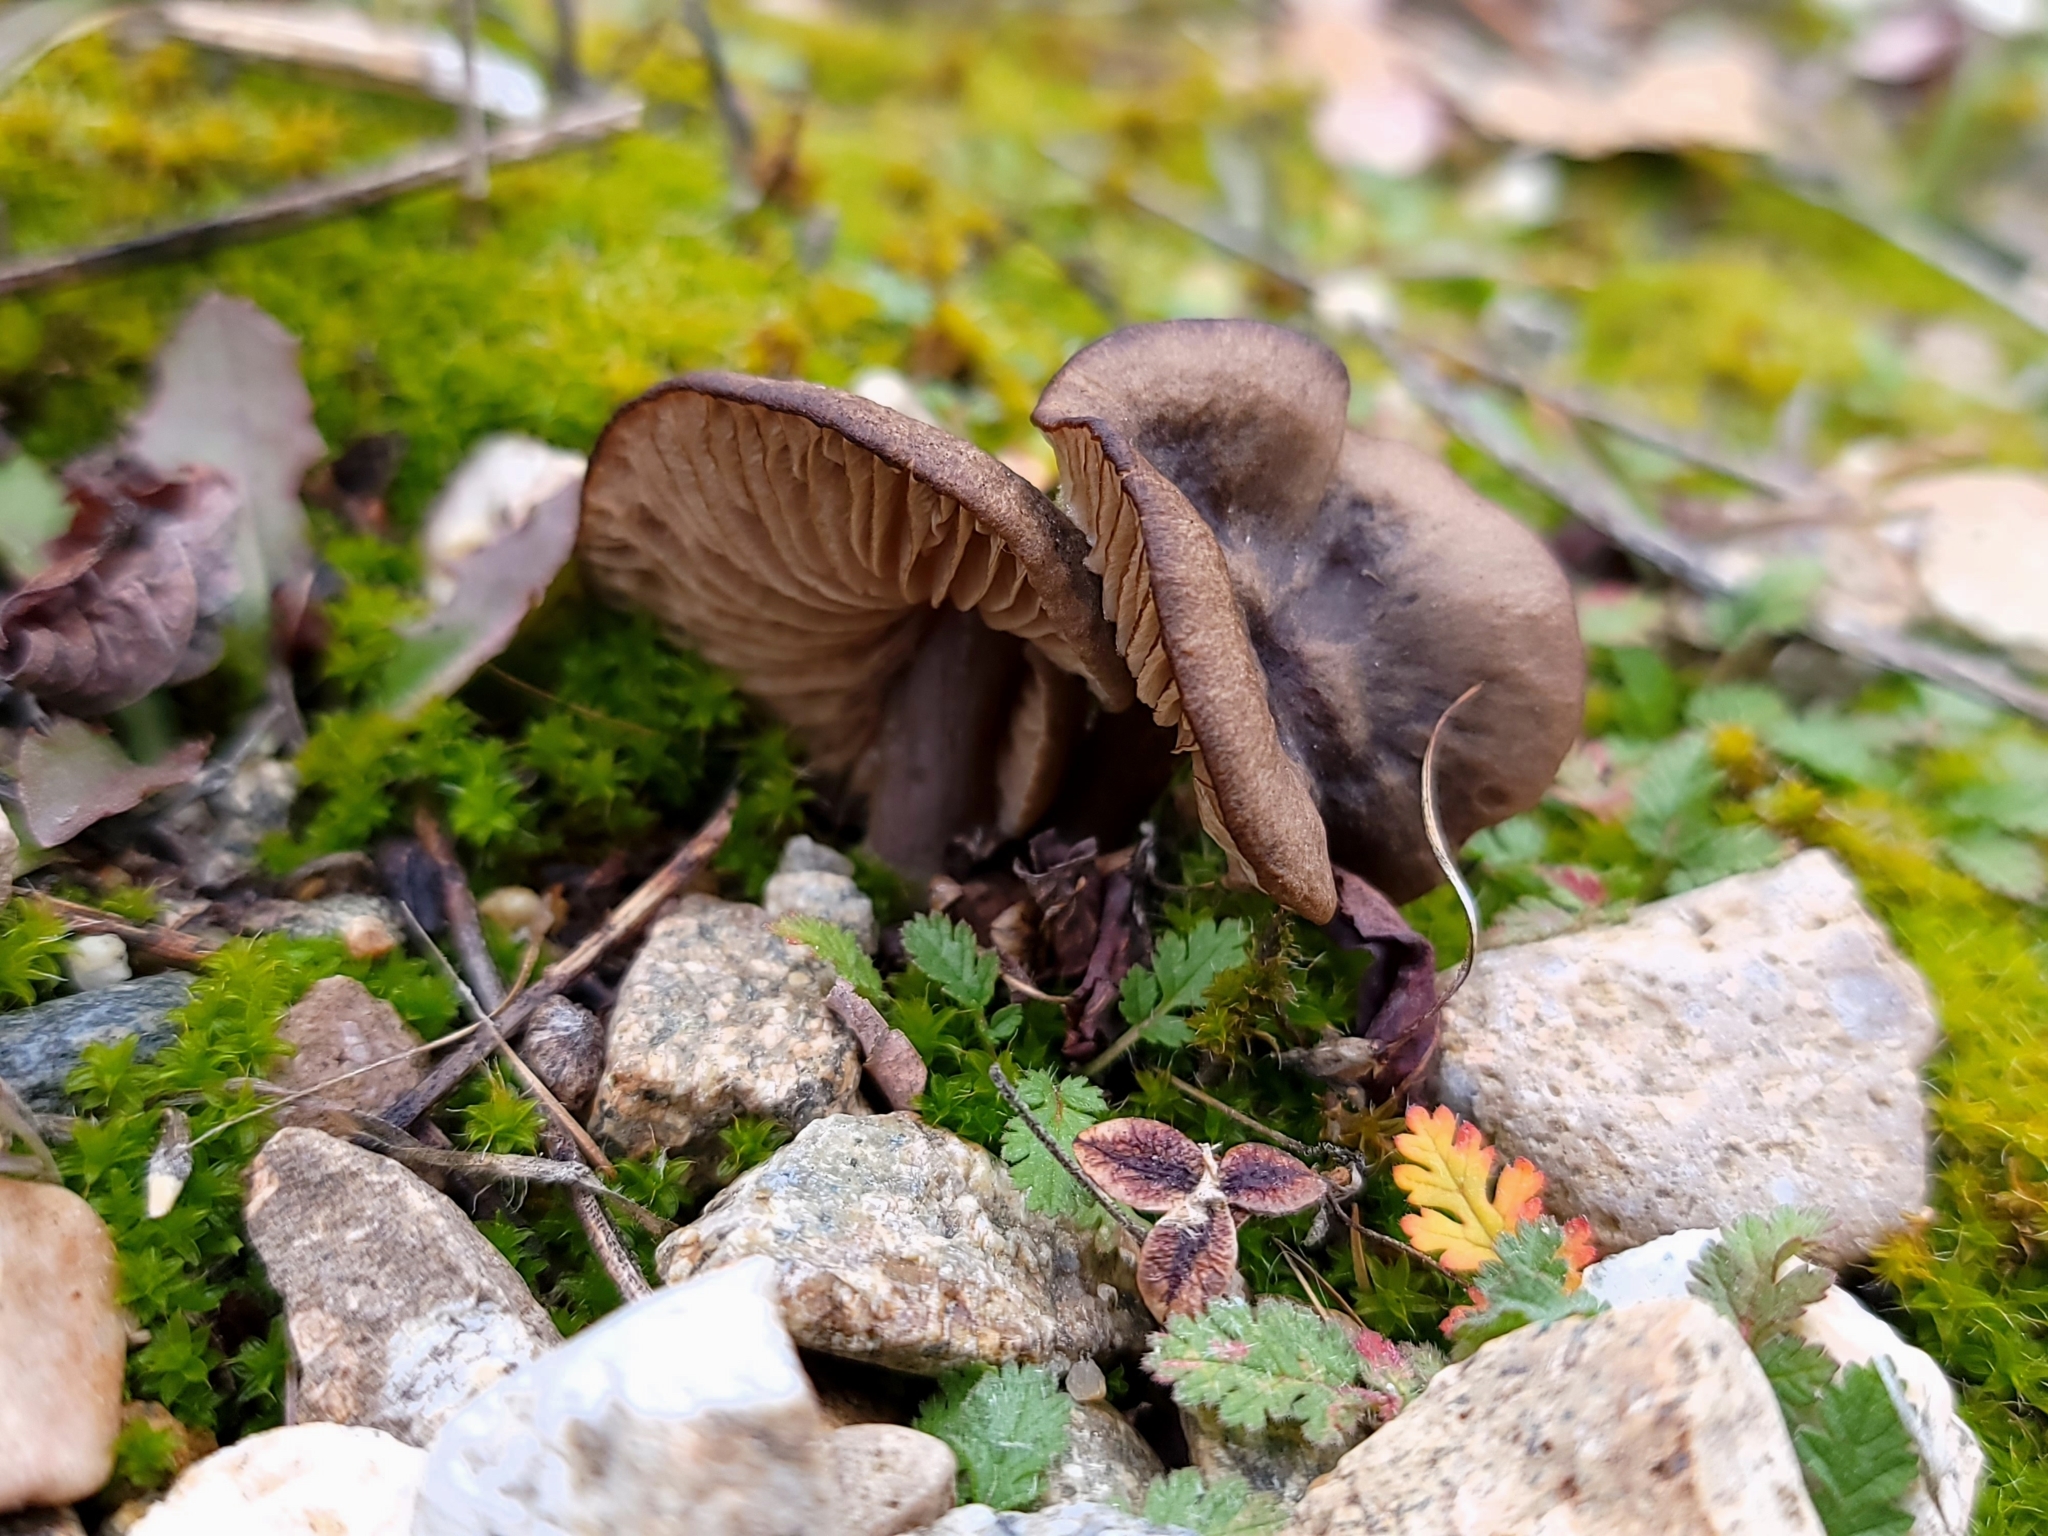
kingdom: Fungi
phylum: Basidiomycota
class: Agaricomycetes
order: Agaricales
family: Entolomataceae
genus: Entoloma
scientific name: Entoloma sericeum
